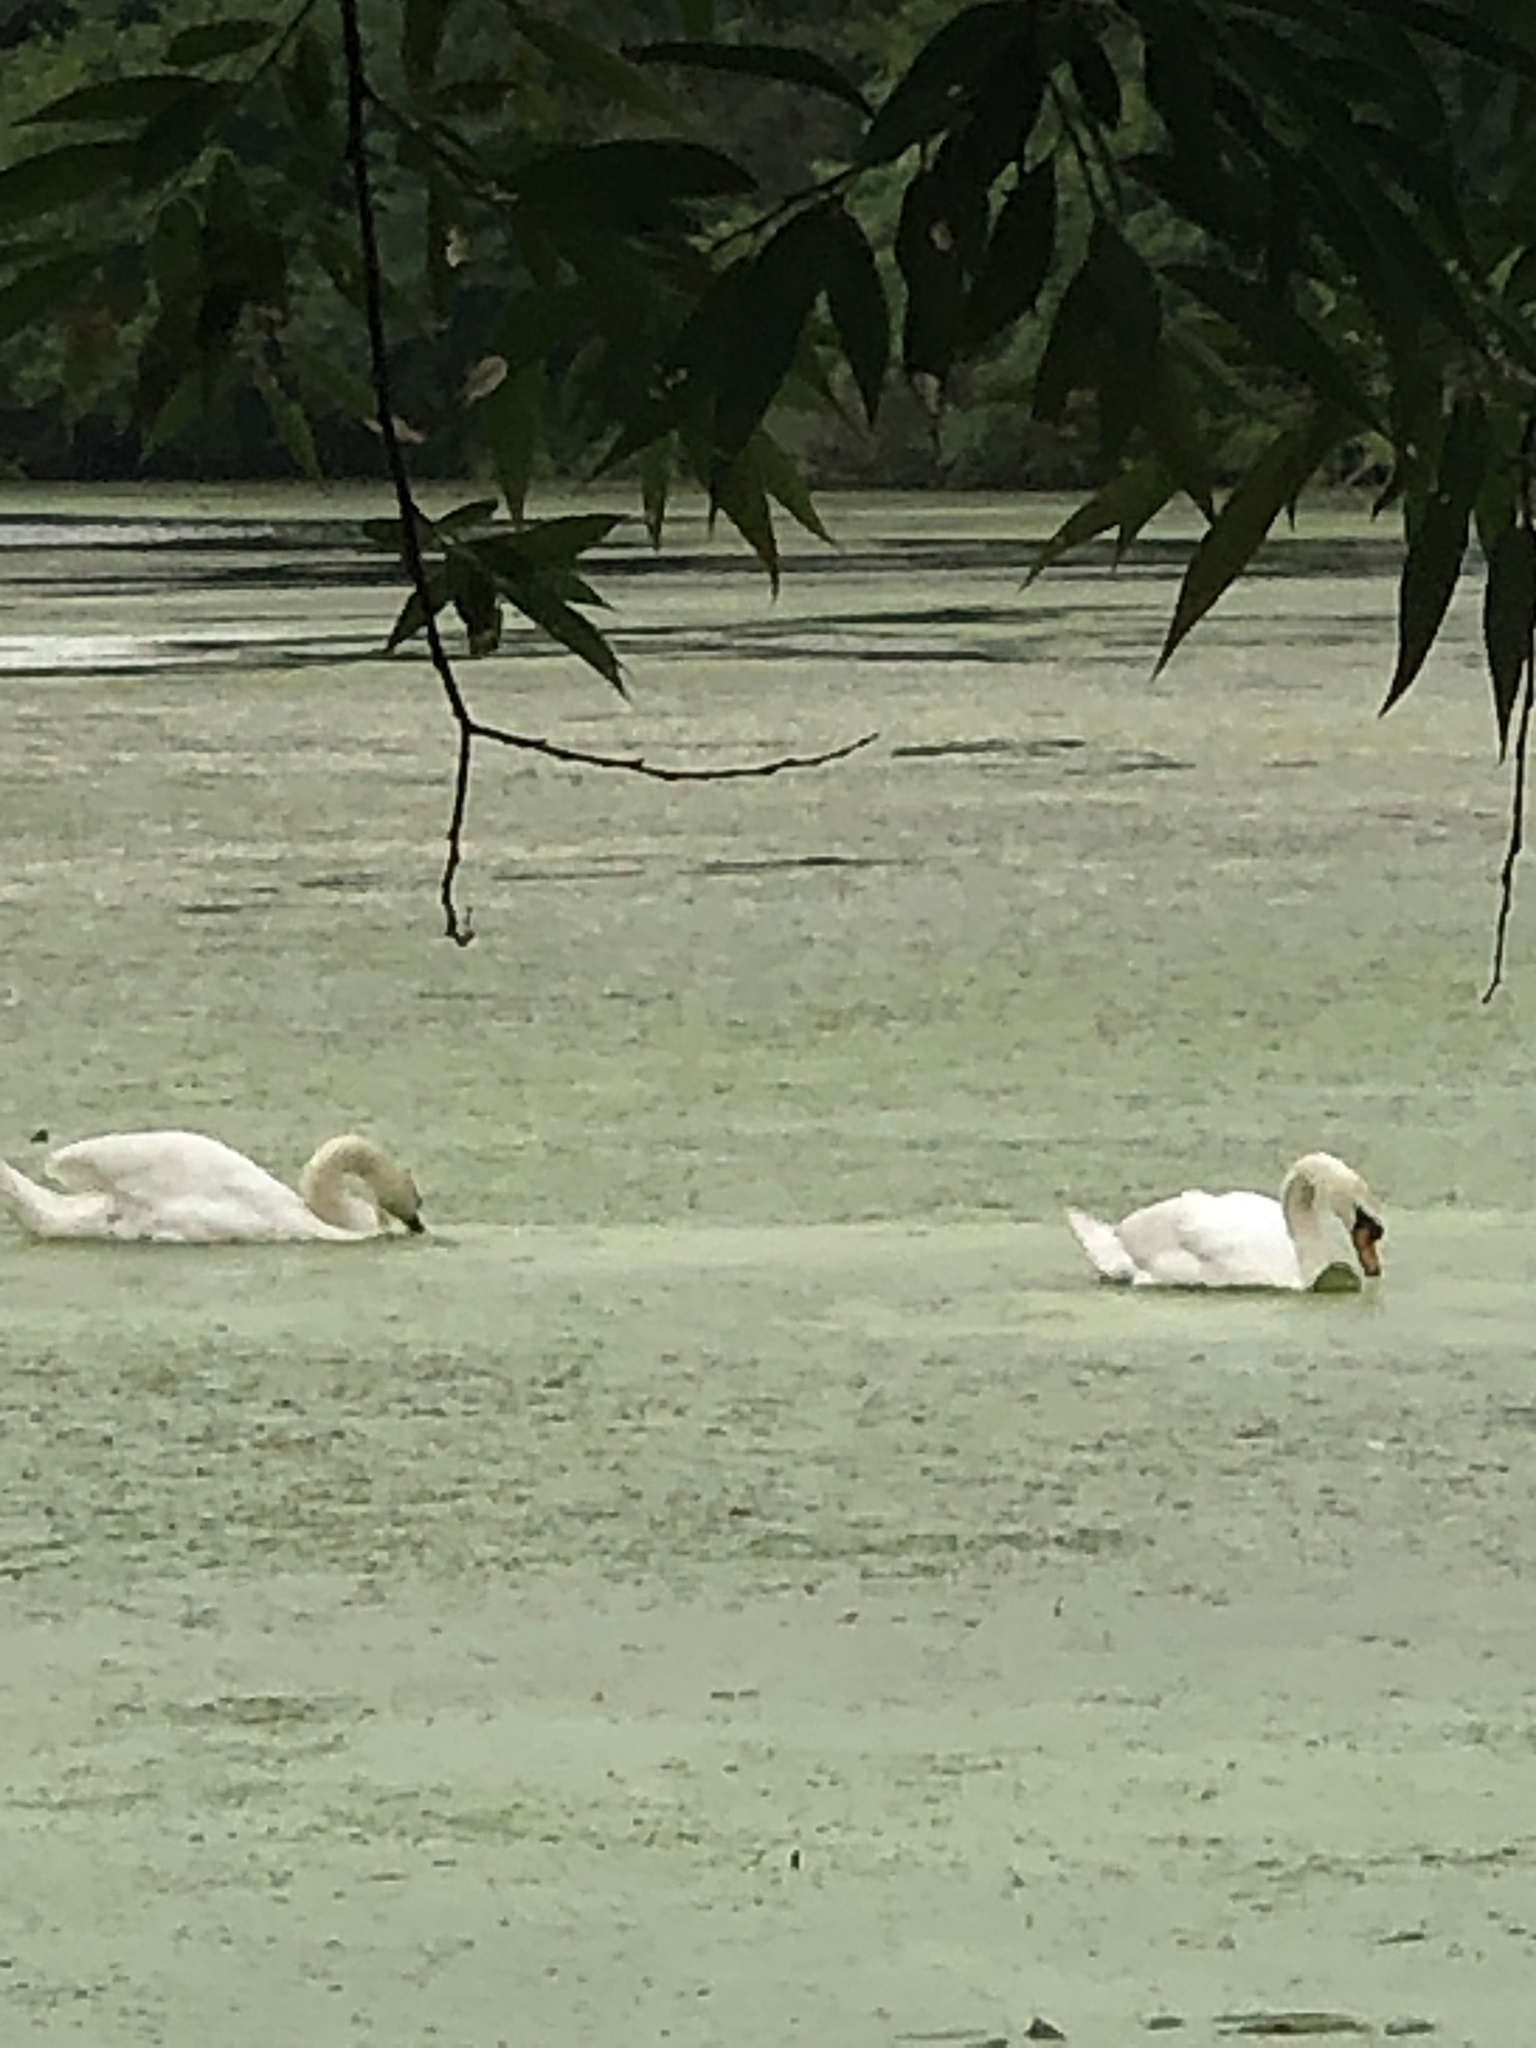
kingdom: Animalia
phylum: Chordata
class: Aves
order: Anseriformes
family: Anatidae
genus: Cygnus
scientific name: Cygnus olor
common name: Mute swan
